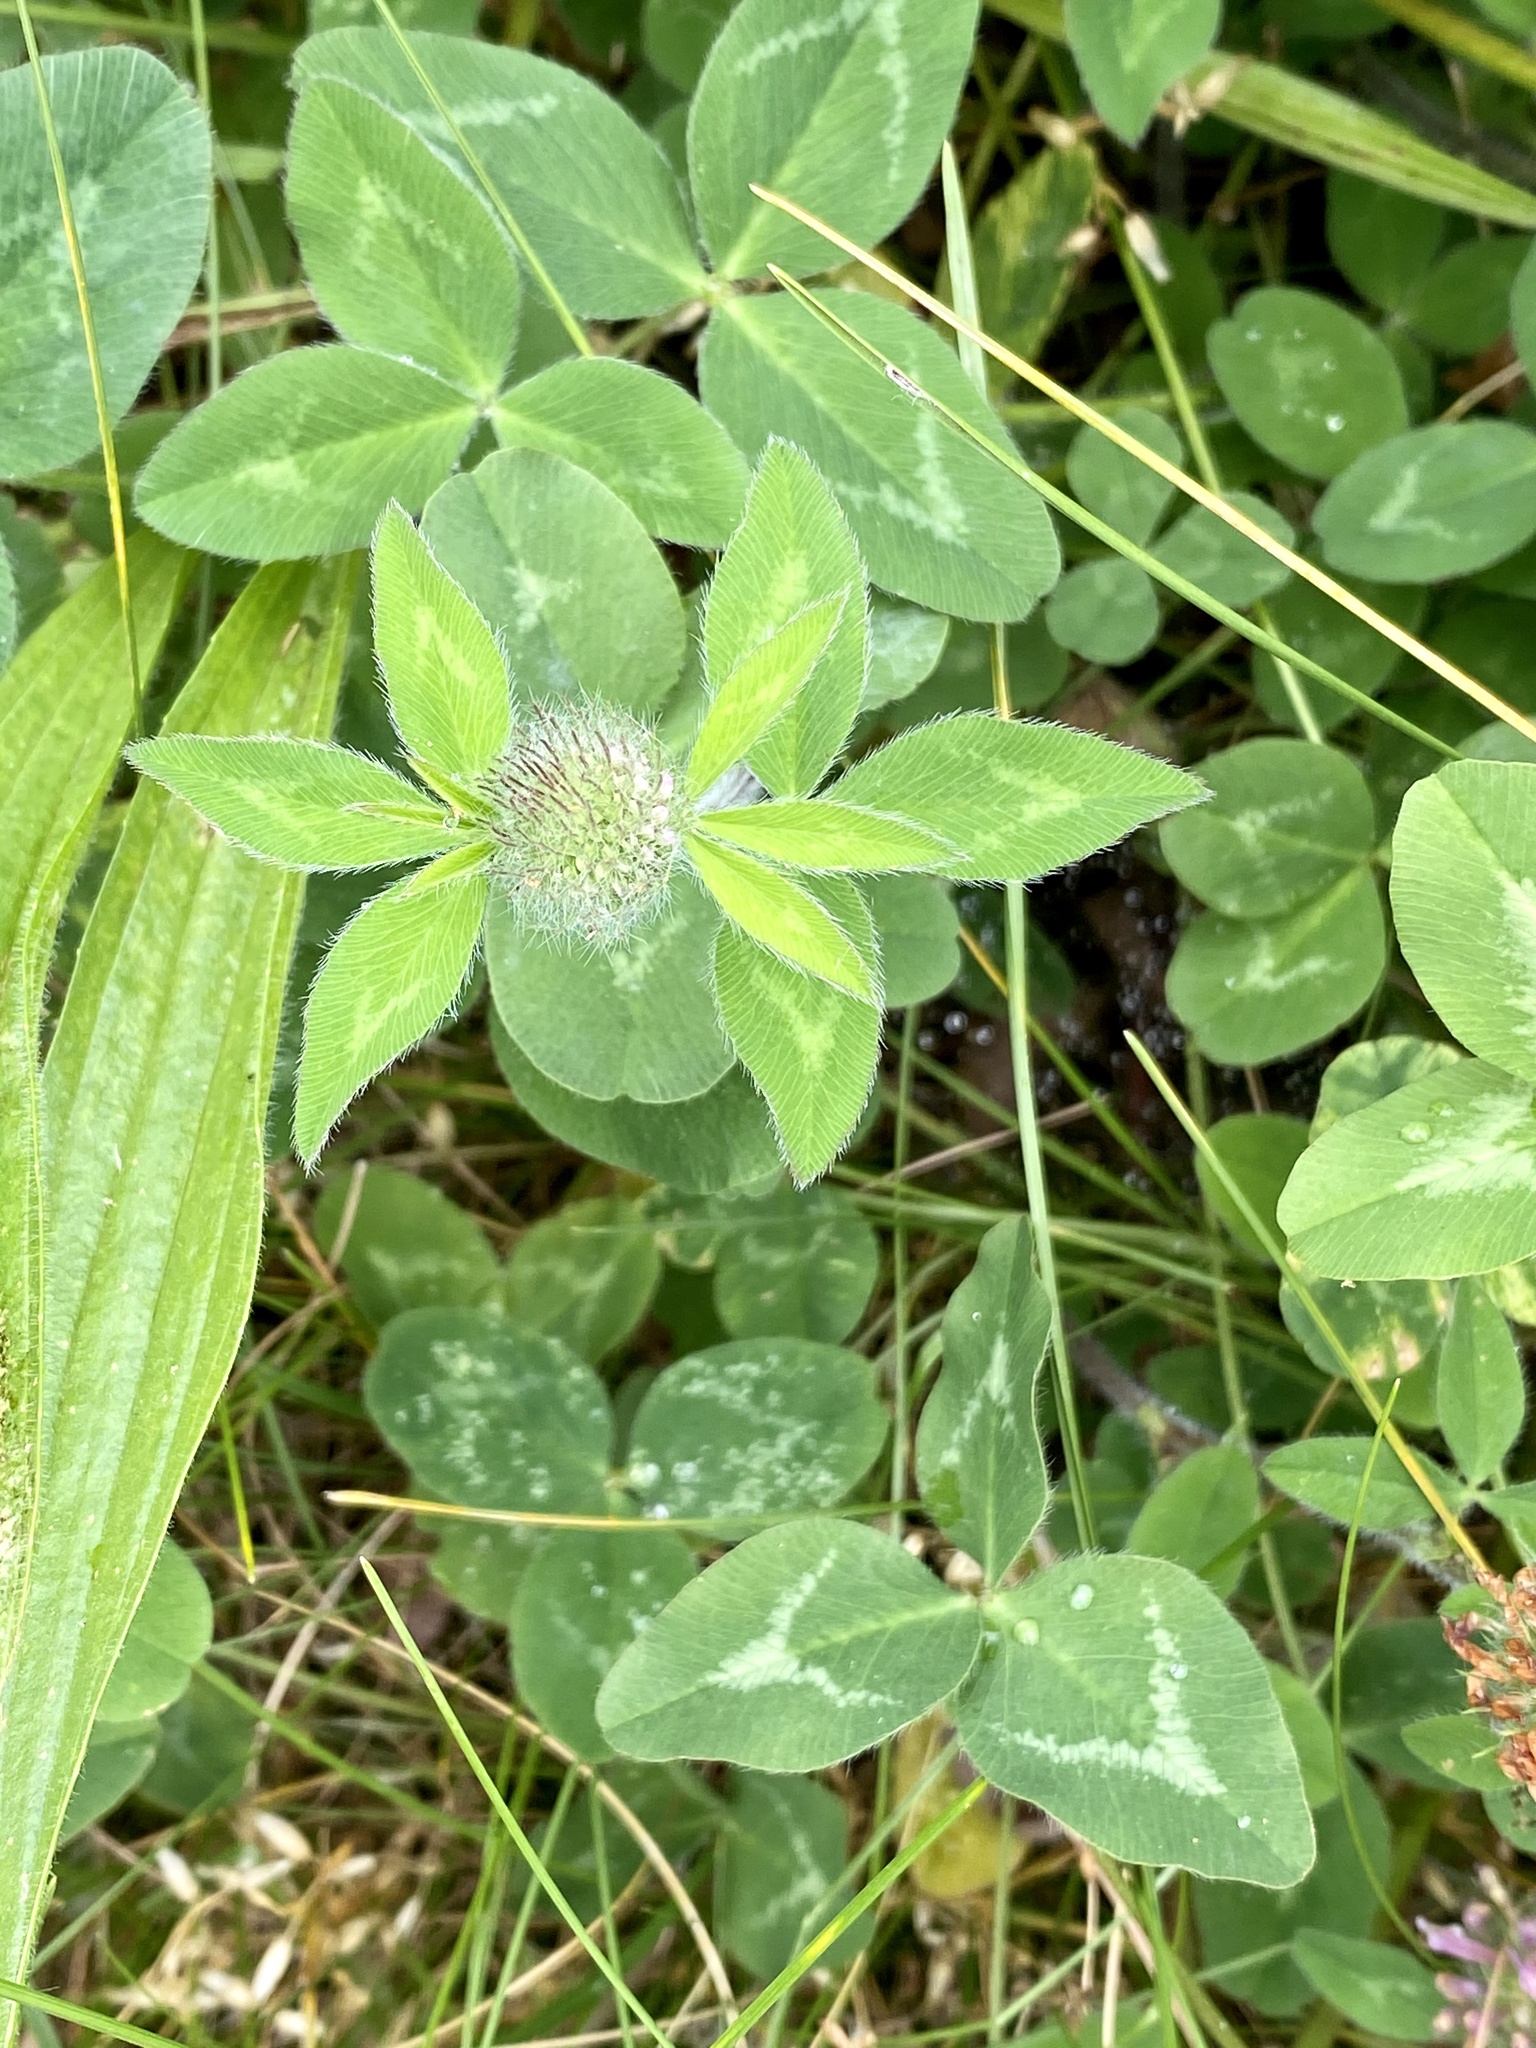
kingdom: Plantae
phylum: Tracheophyta
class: Magnoliopsida
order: Fabales
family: Fabaceae
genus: Trifolium
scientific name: Trifolium pratense
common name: Red clover
